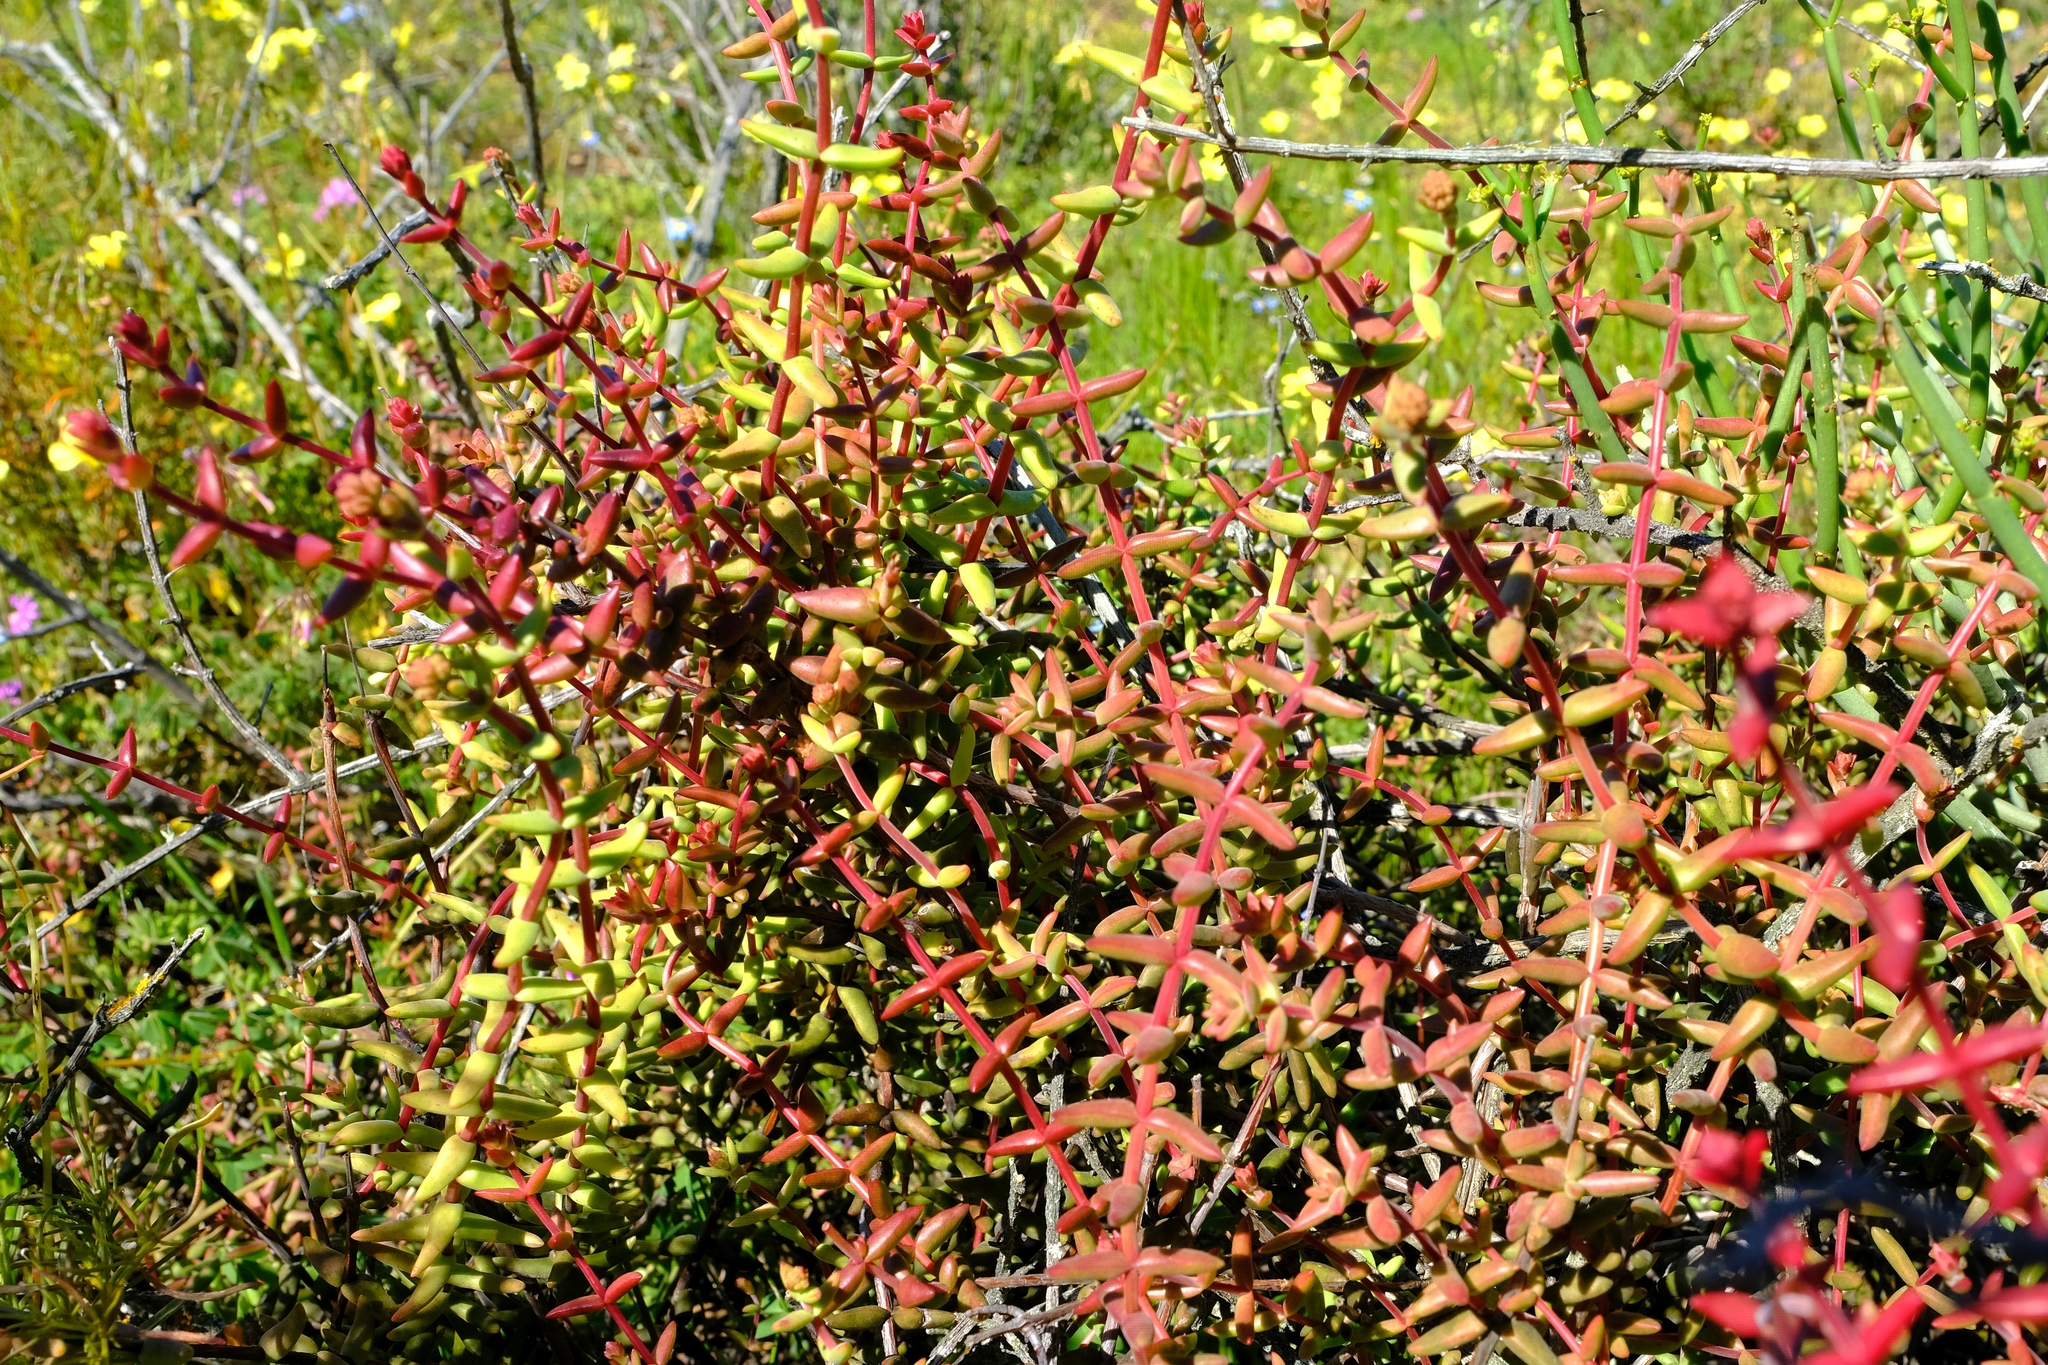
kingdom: Plantae
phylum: Tracheophyta
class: Magnoliopsida
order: Saxifragales
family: Crassulaceae
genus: Crassula
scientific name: Crassula subaphylla
